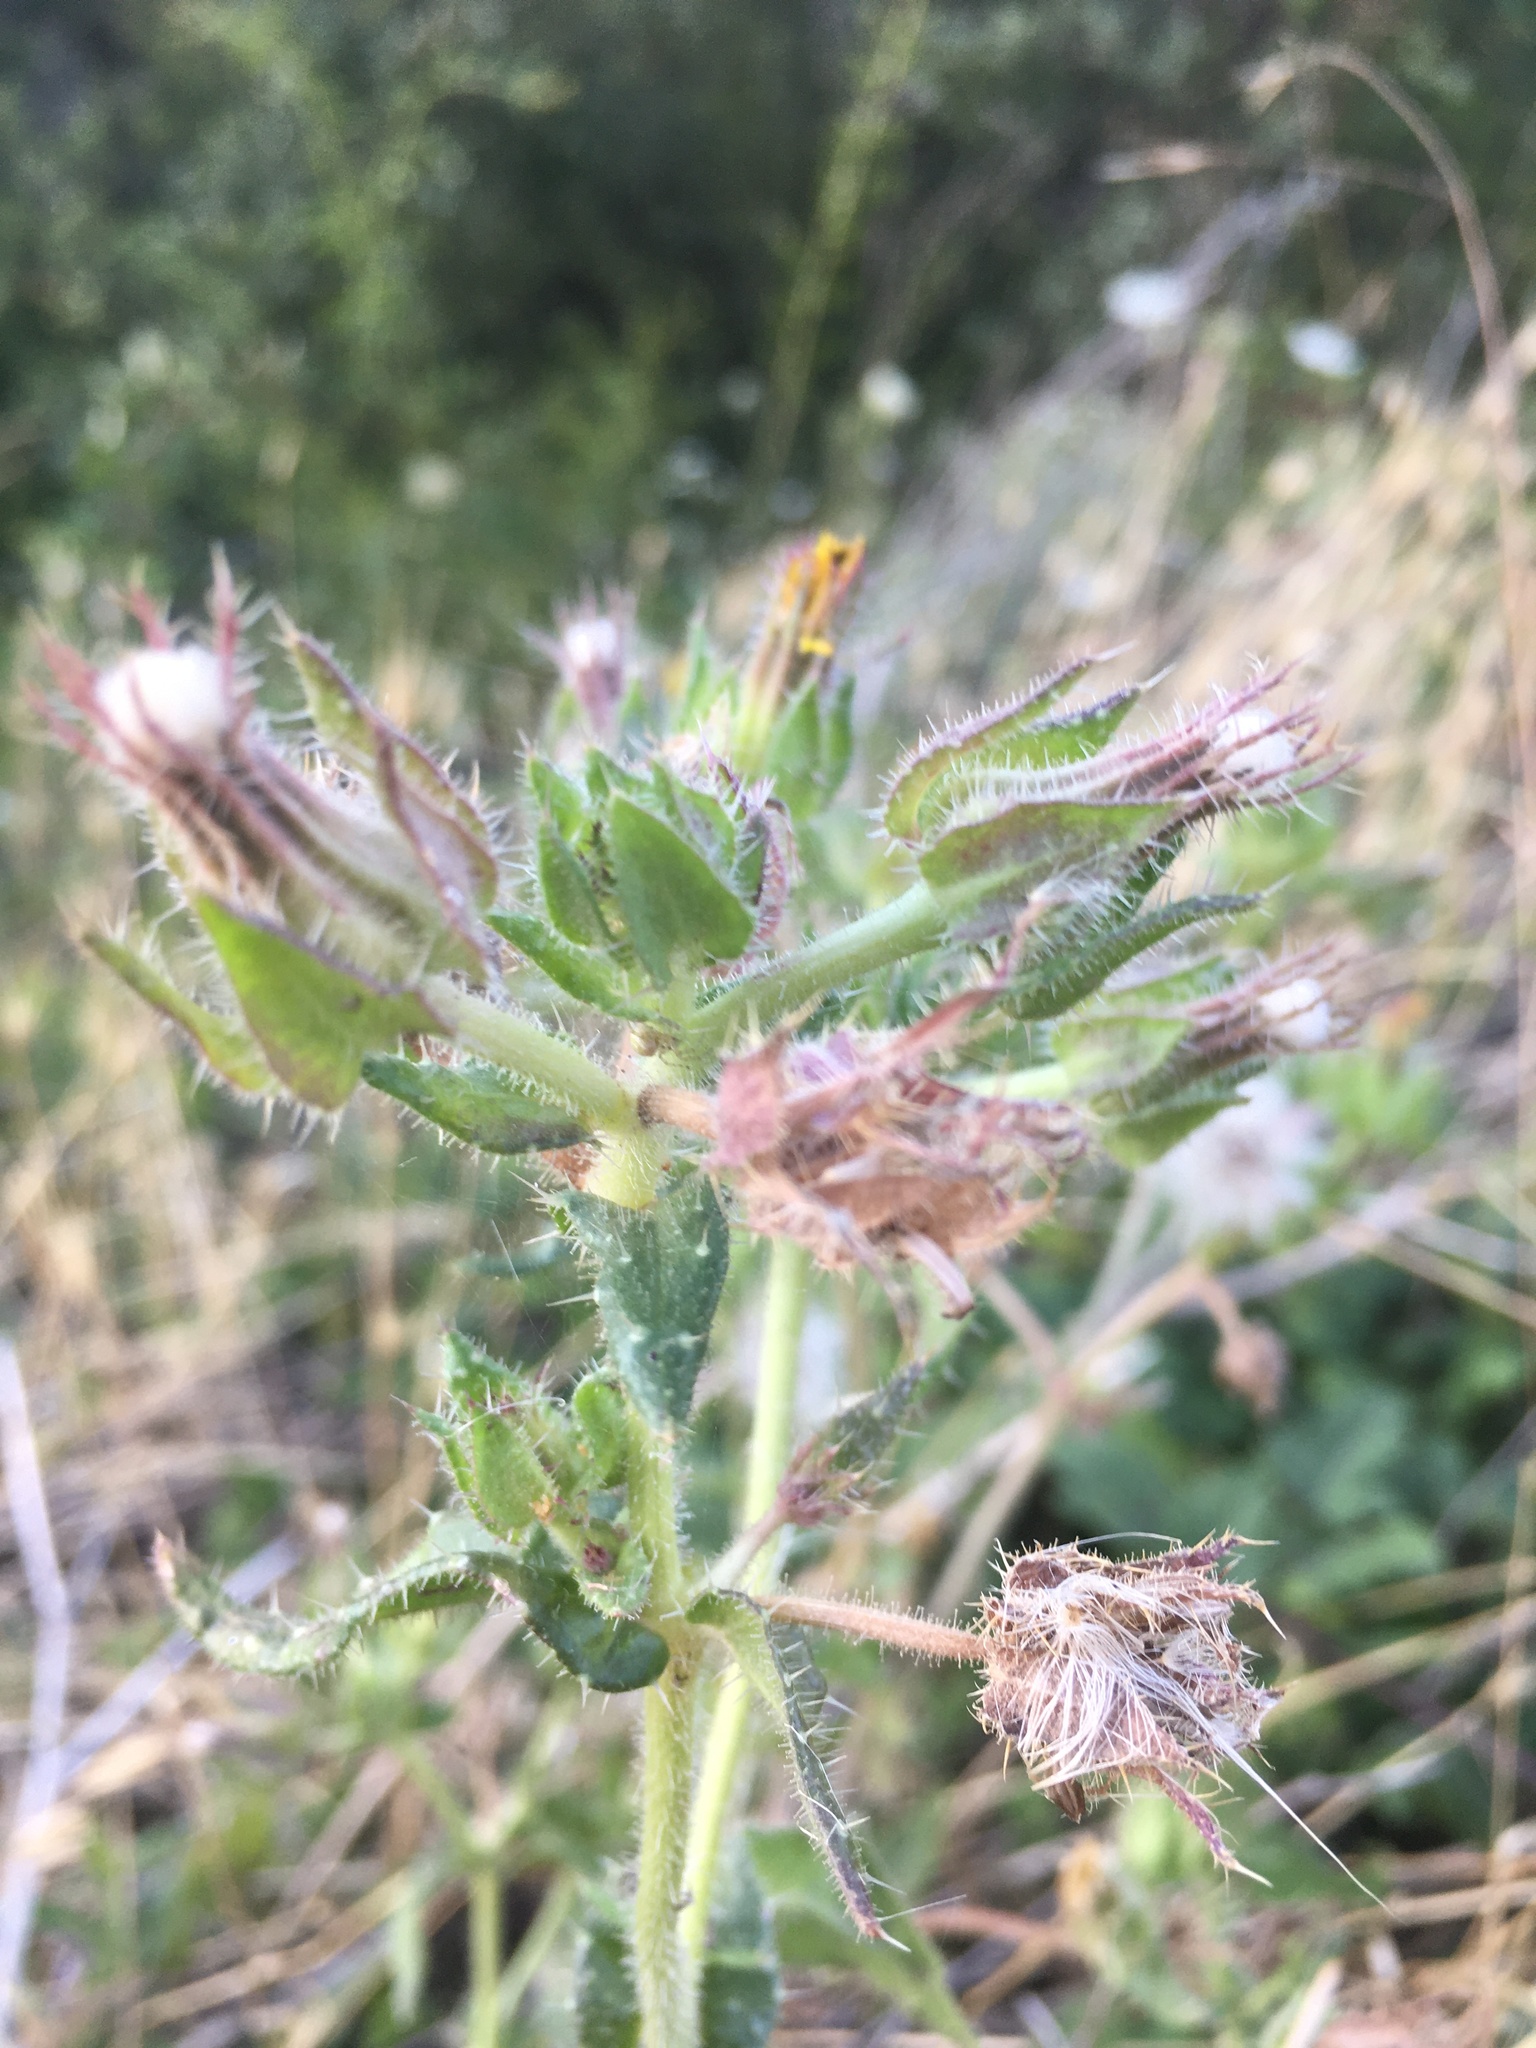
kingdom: Plantae
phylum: Tracheophyta
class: Magnoliopsida
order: Asterales
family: Asteraceae
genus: Helminthotheca
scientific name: Helminthotheca echioides
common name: Ox-tongue
